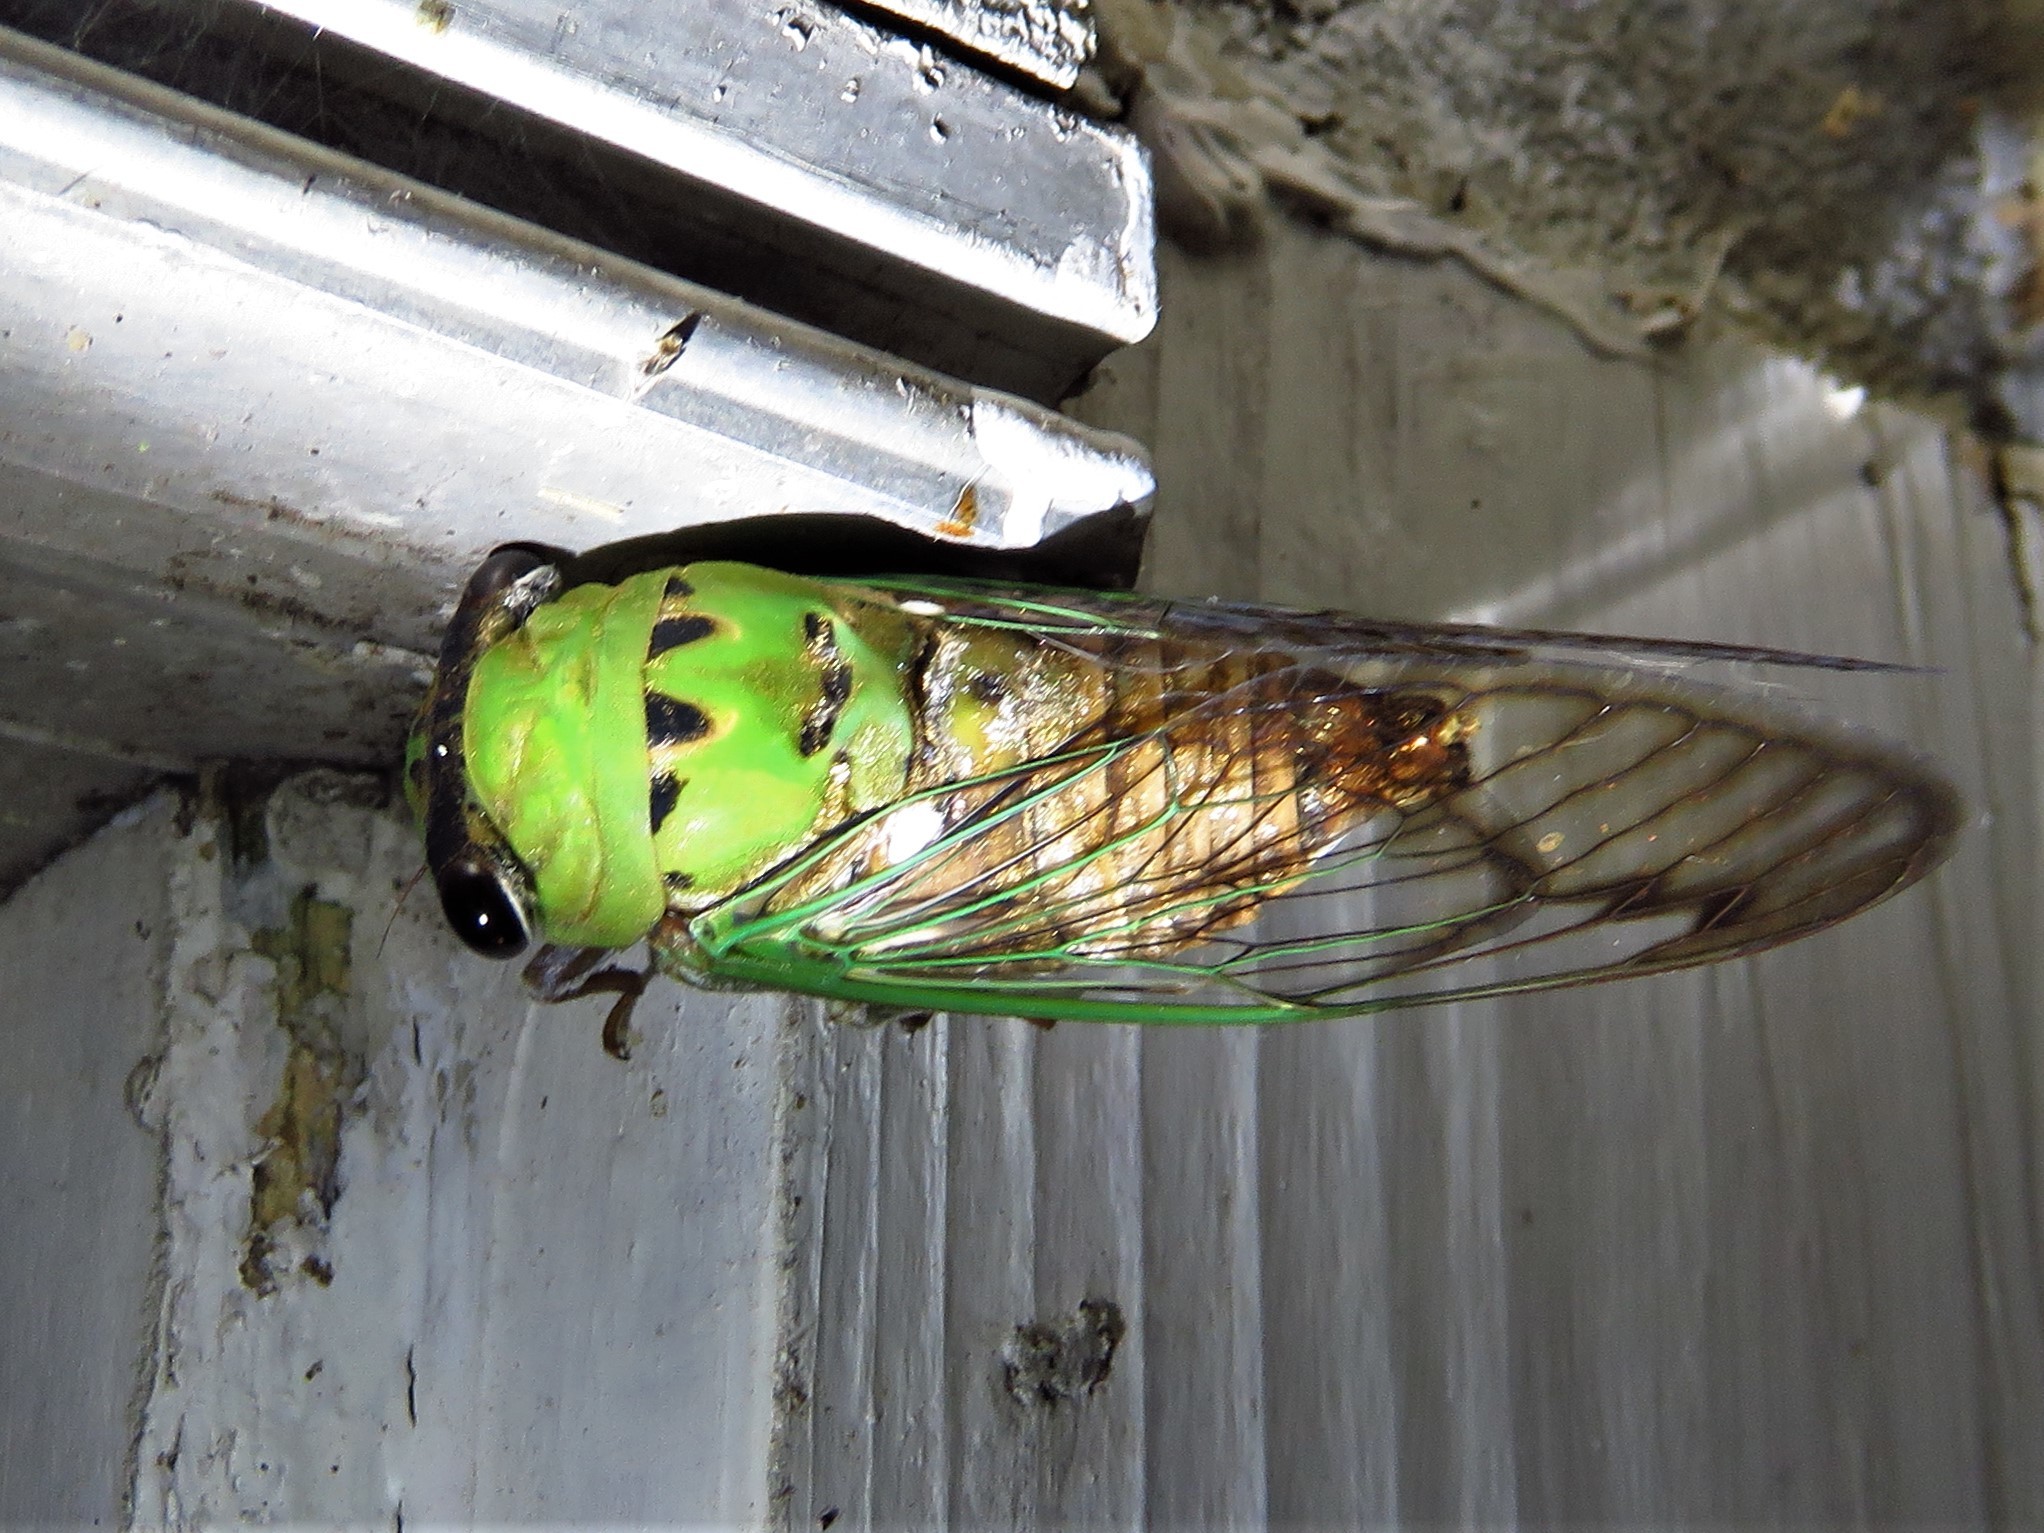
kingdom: Animalia
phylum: Arthropoda
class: Insecta
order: Hemiptera
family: Cicadidae
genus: Neotibicen
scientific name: Neotibicen superbus
